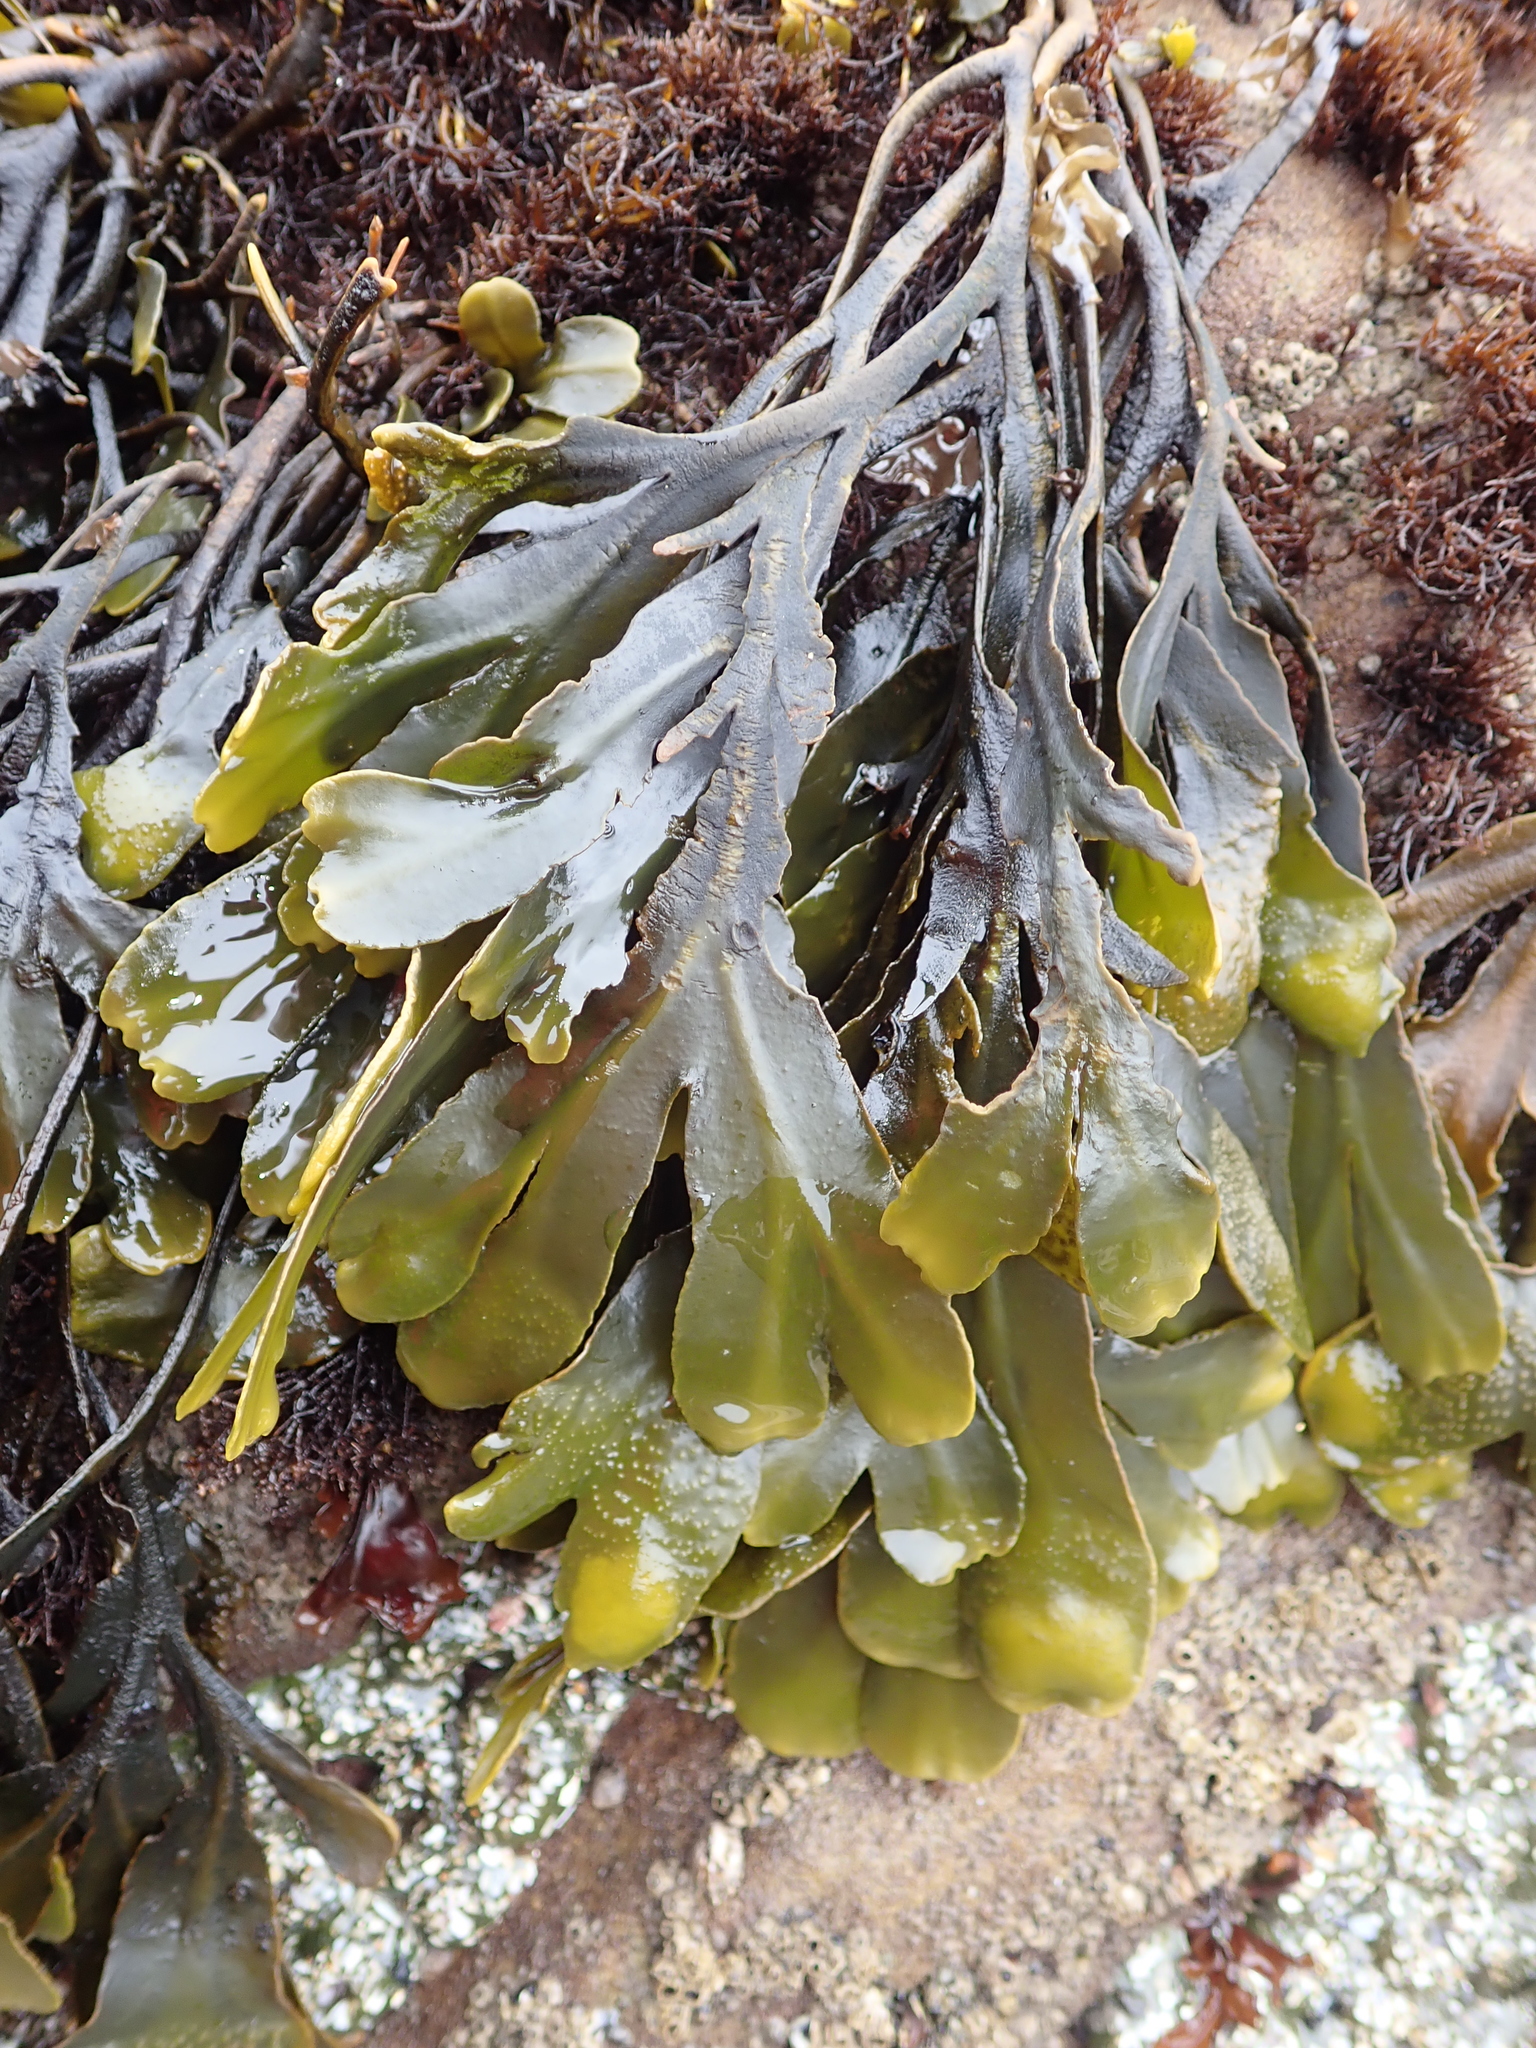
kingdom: Chromista
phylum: Ochrophyta
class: Phaeophyceae
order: Fucales
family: Fucaceae
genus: Fucus
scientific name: Fucus distichus
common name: Rockweed
